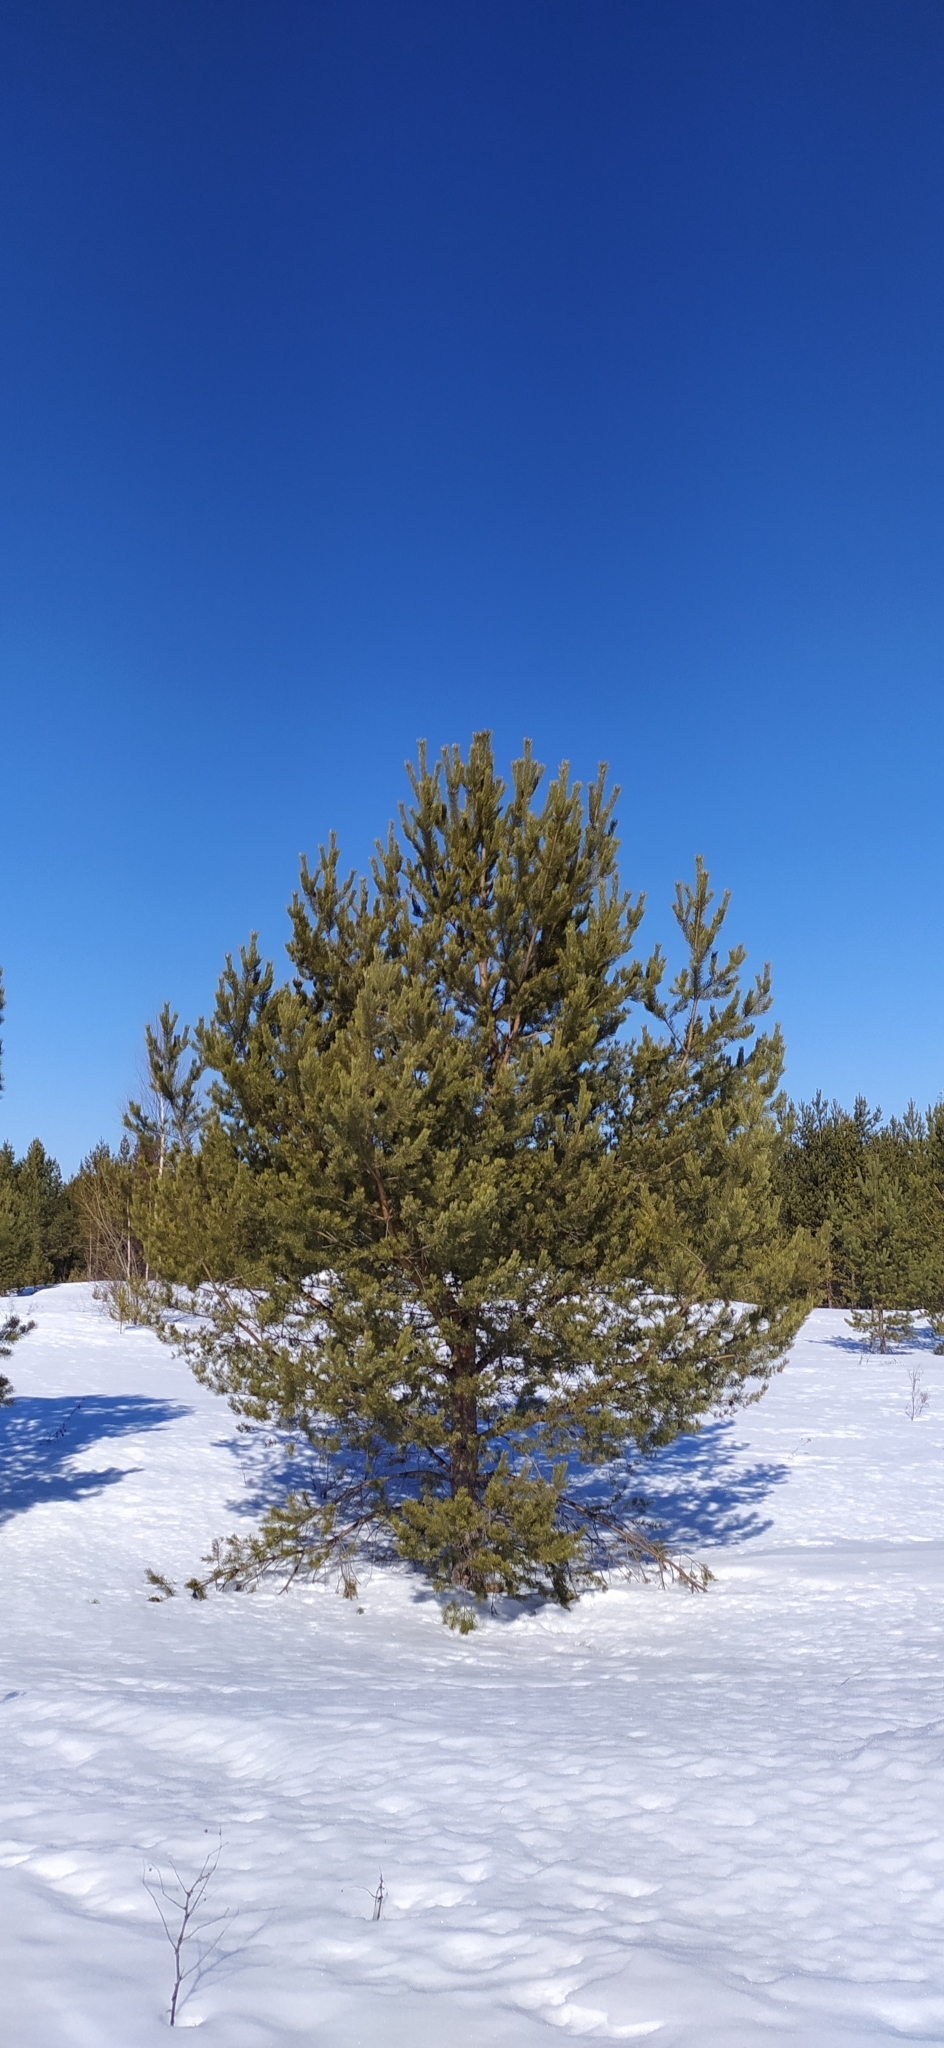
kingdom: Plantae
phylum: Tracheophyta
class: Pinopsida
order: Pinales
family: Pinaceae
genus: Pinus
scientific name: Pinus sylvestris
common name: Scots pine
